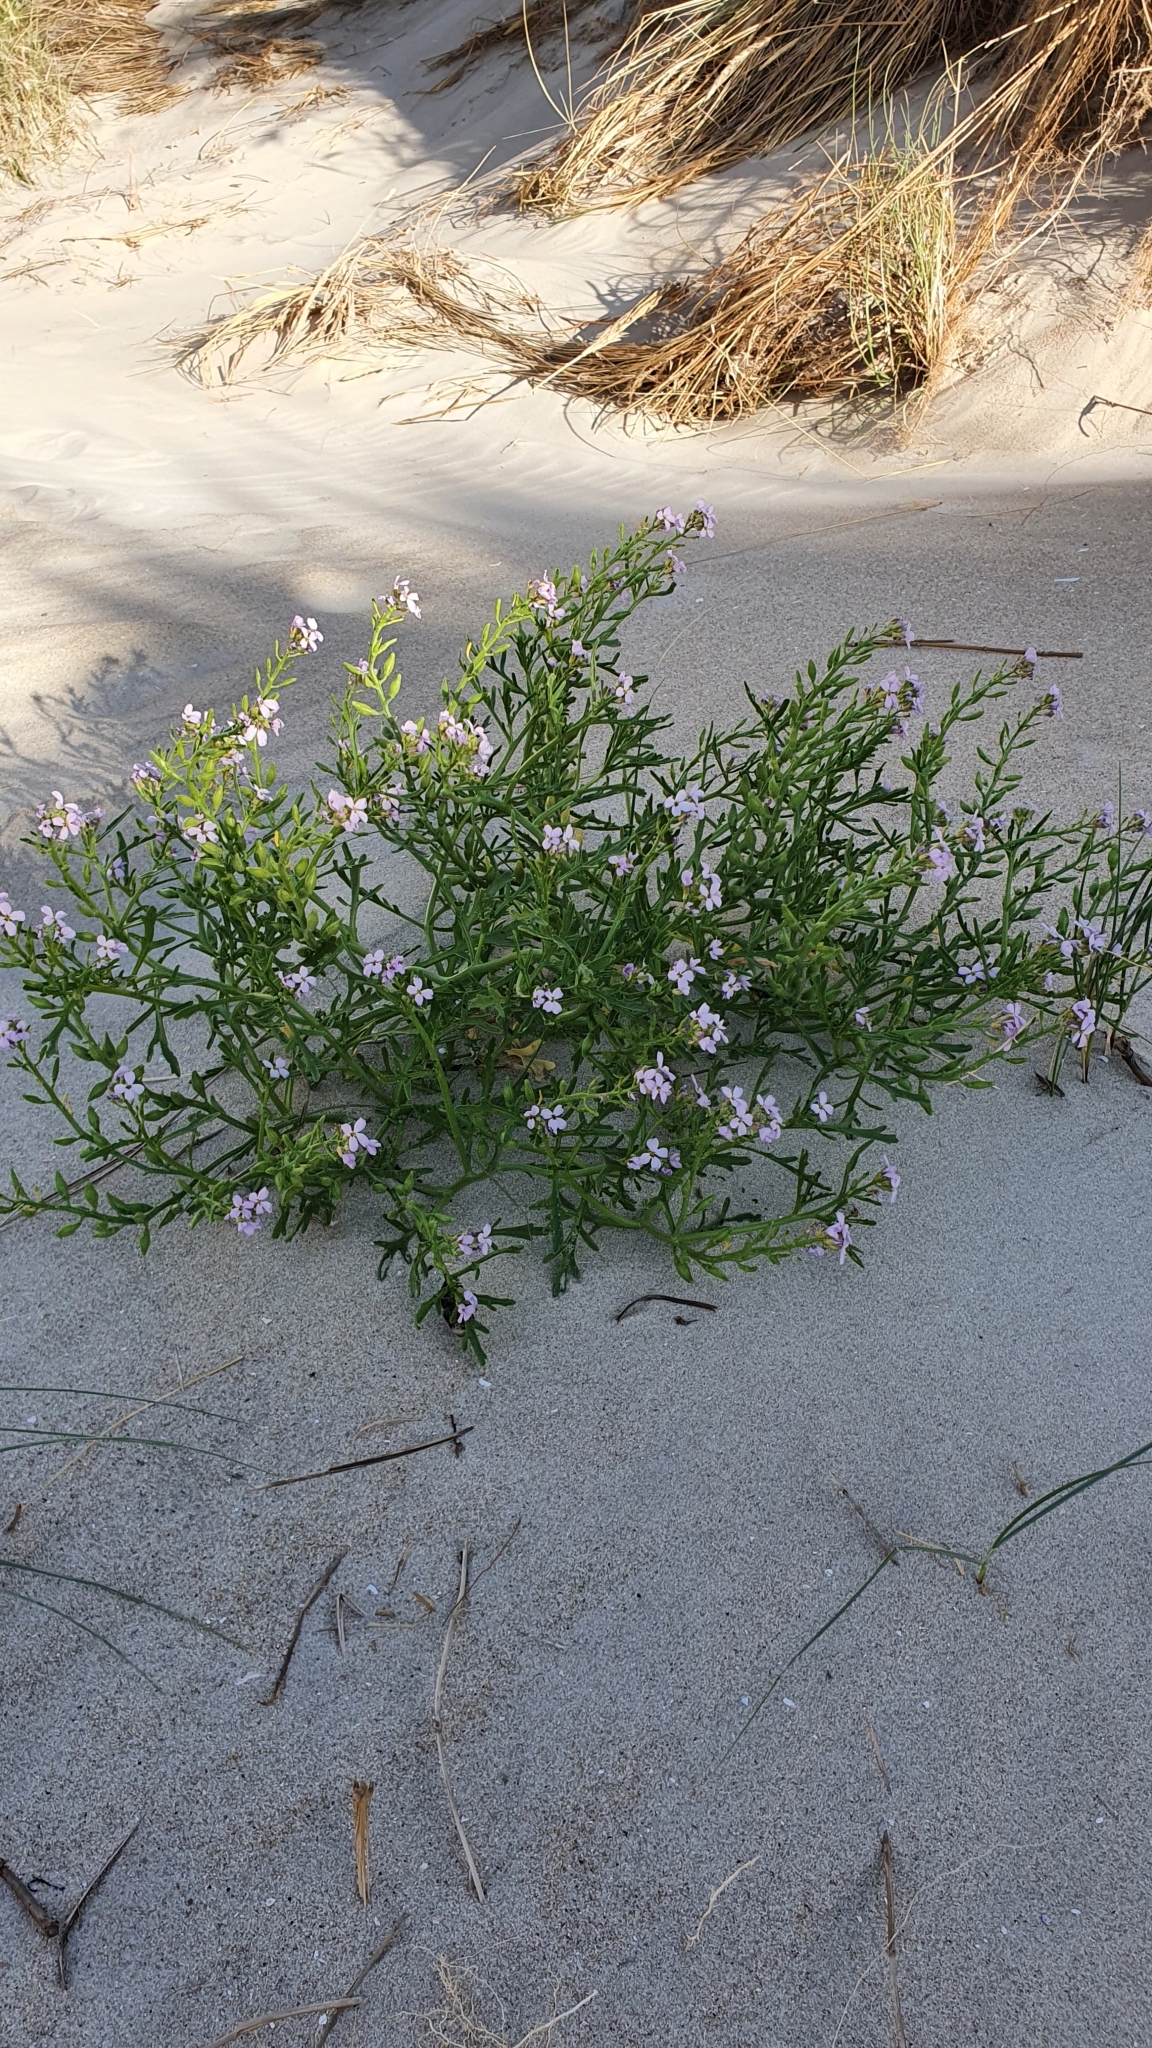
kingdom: Plantae
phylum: Tracheophyta
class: Magnoliopsida
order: Brassicales
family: Brassicaceae
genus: Cakile
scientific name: Cakile maritima
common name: Sea rocket
